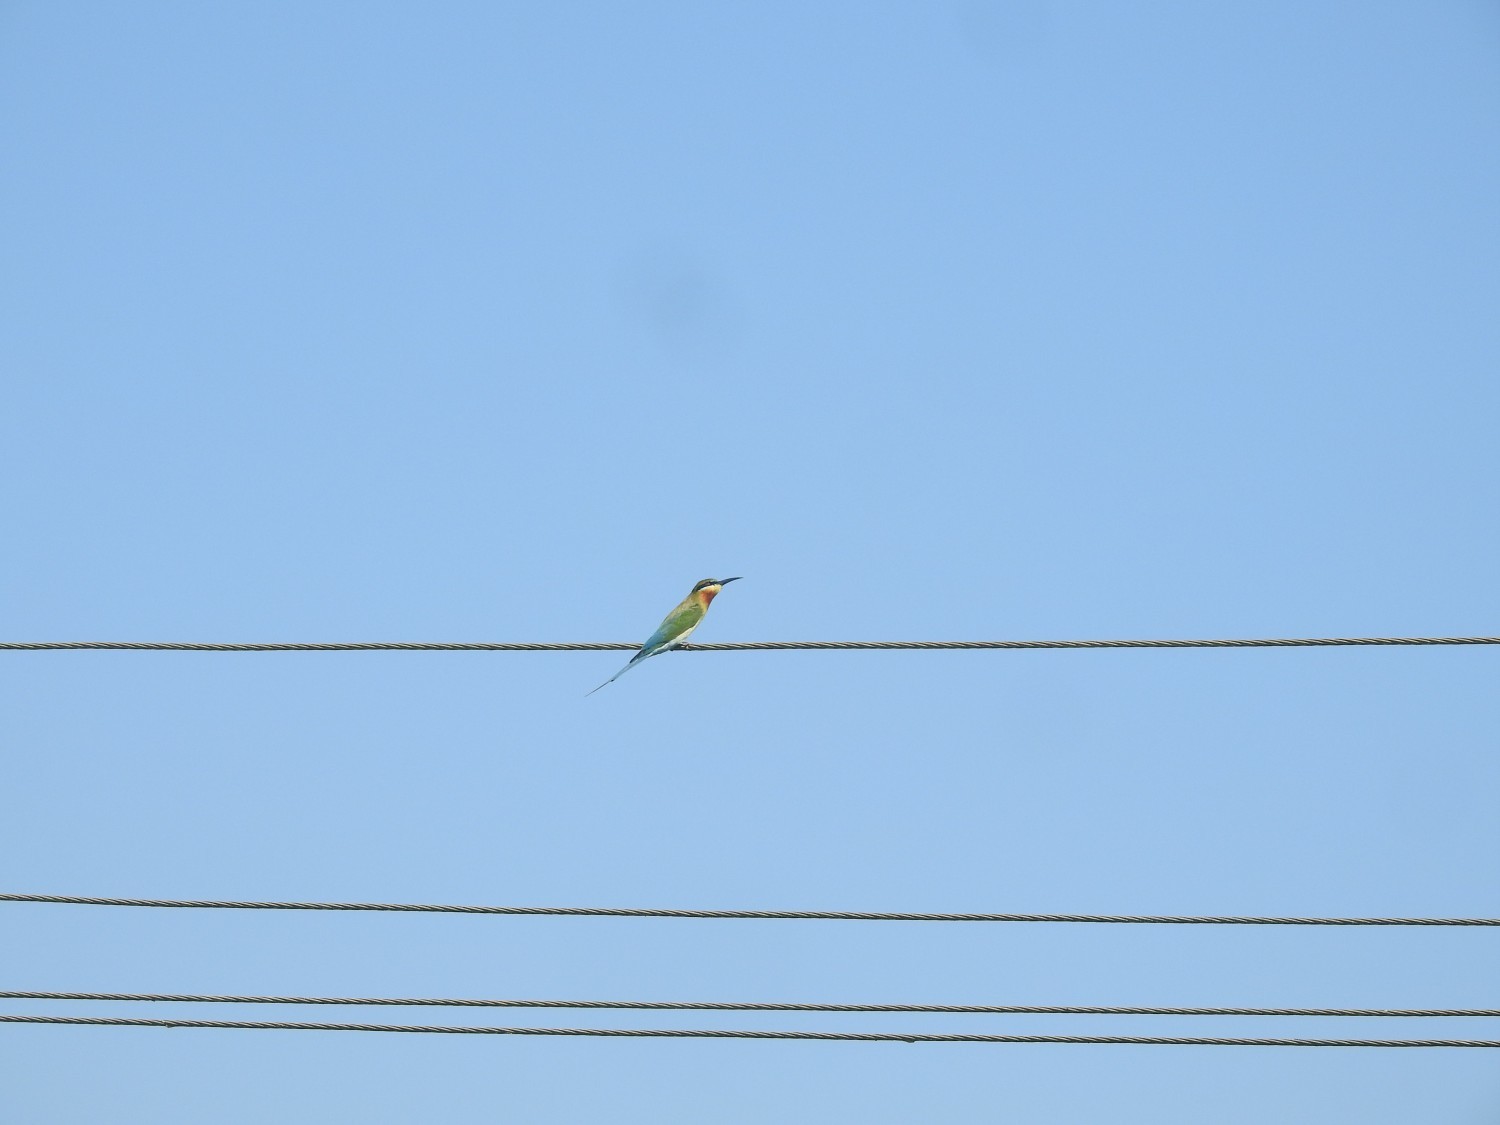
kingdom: Animalia
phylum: Chordata
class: Aves
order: Coraciiformes
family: Meropidae
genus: Merops
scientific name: Merops philippinus
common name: Blue-tailed bee-eater
